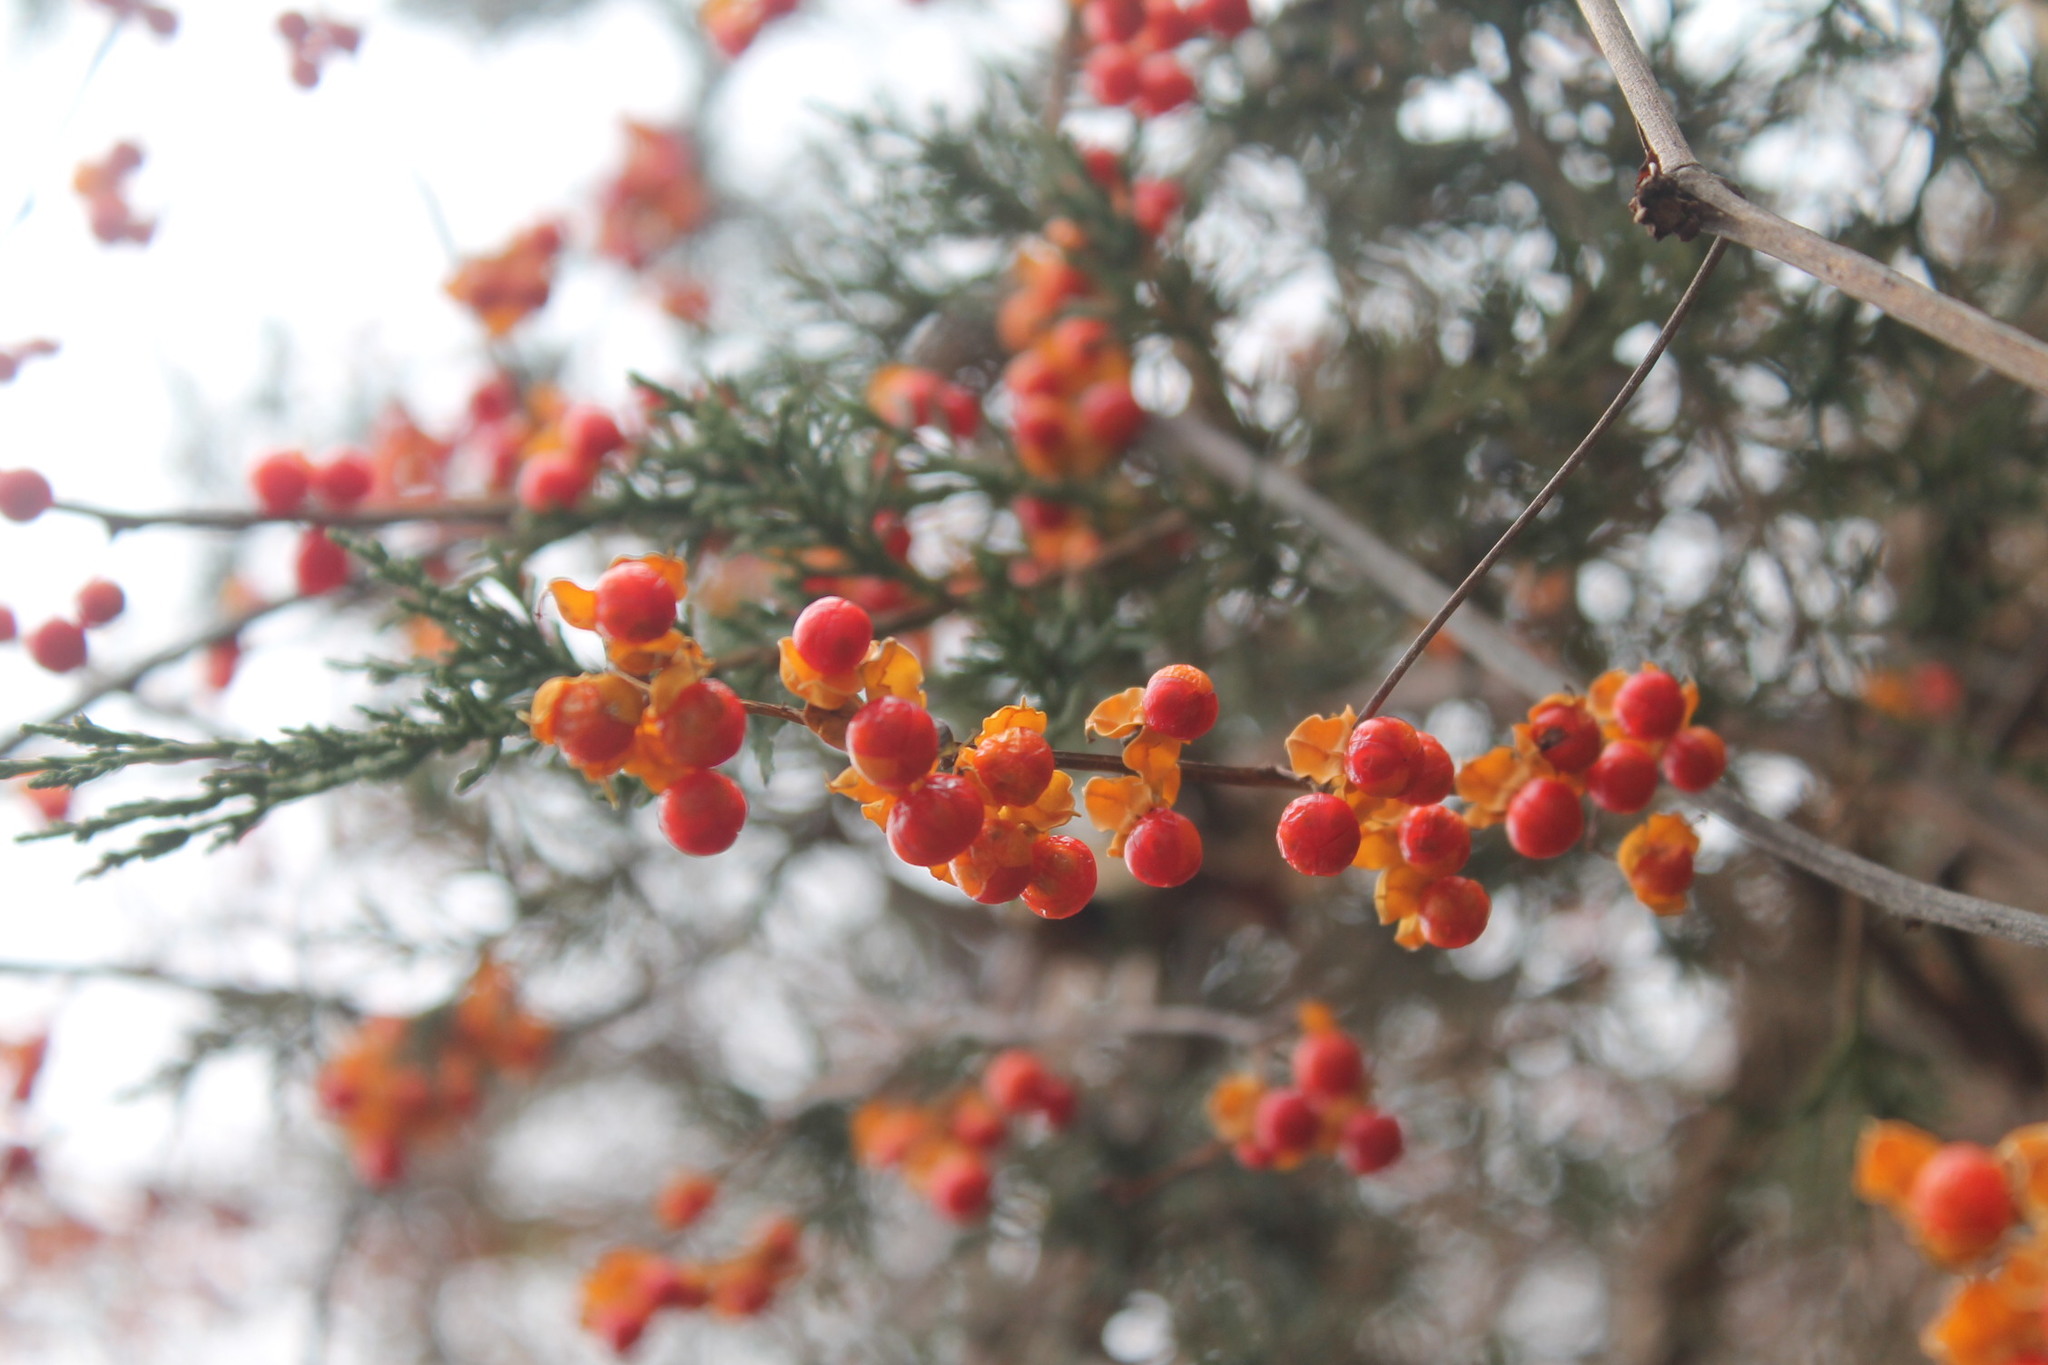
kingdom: Plantae
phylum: Tracheophyta
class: Magnoliopsida
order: Celastrales
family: Celastraceae
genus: Celastrus
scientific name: Celastrus orbiculatus
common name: Oriental bittersweet
